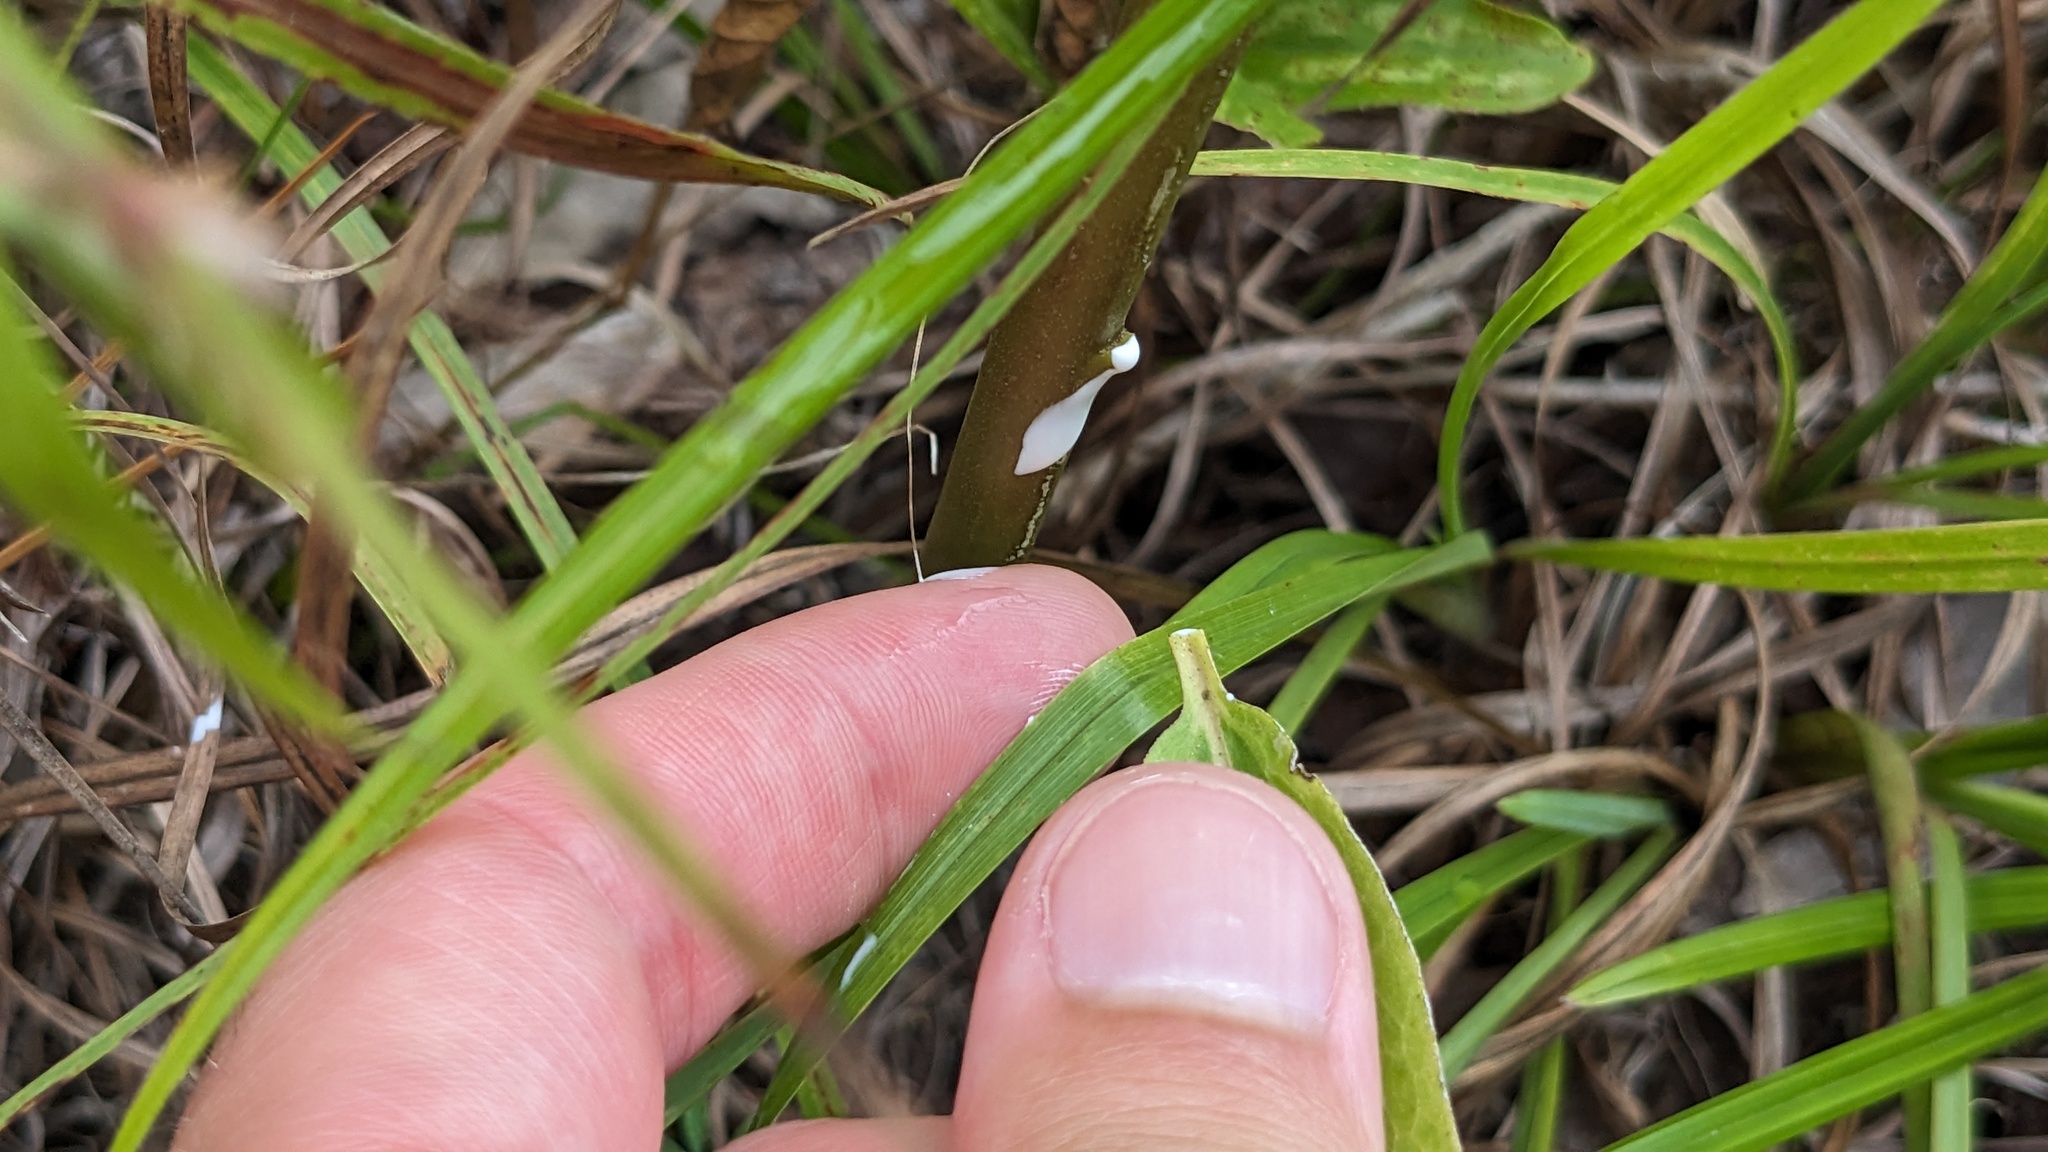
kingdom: Plantae
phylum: Tracheophyta
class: Magnoliopsida
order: Gentianales
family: Apocynaceae
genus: Asclepias
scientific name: Asclepias viridis
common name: Antelope-horns
